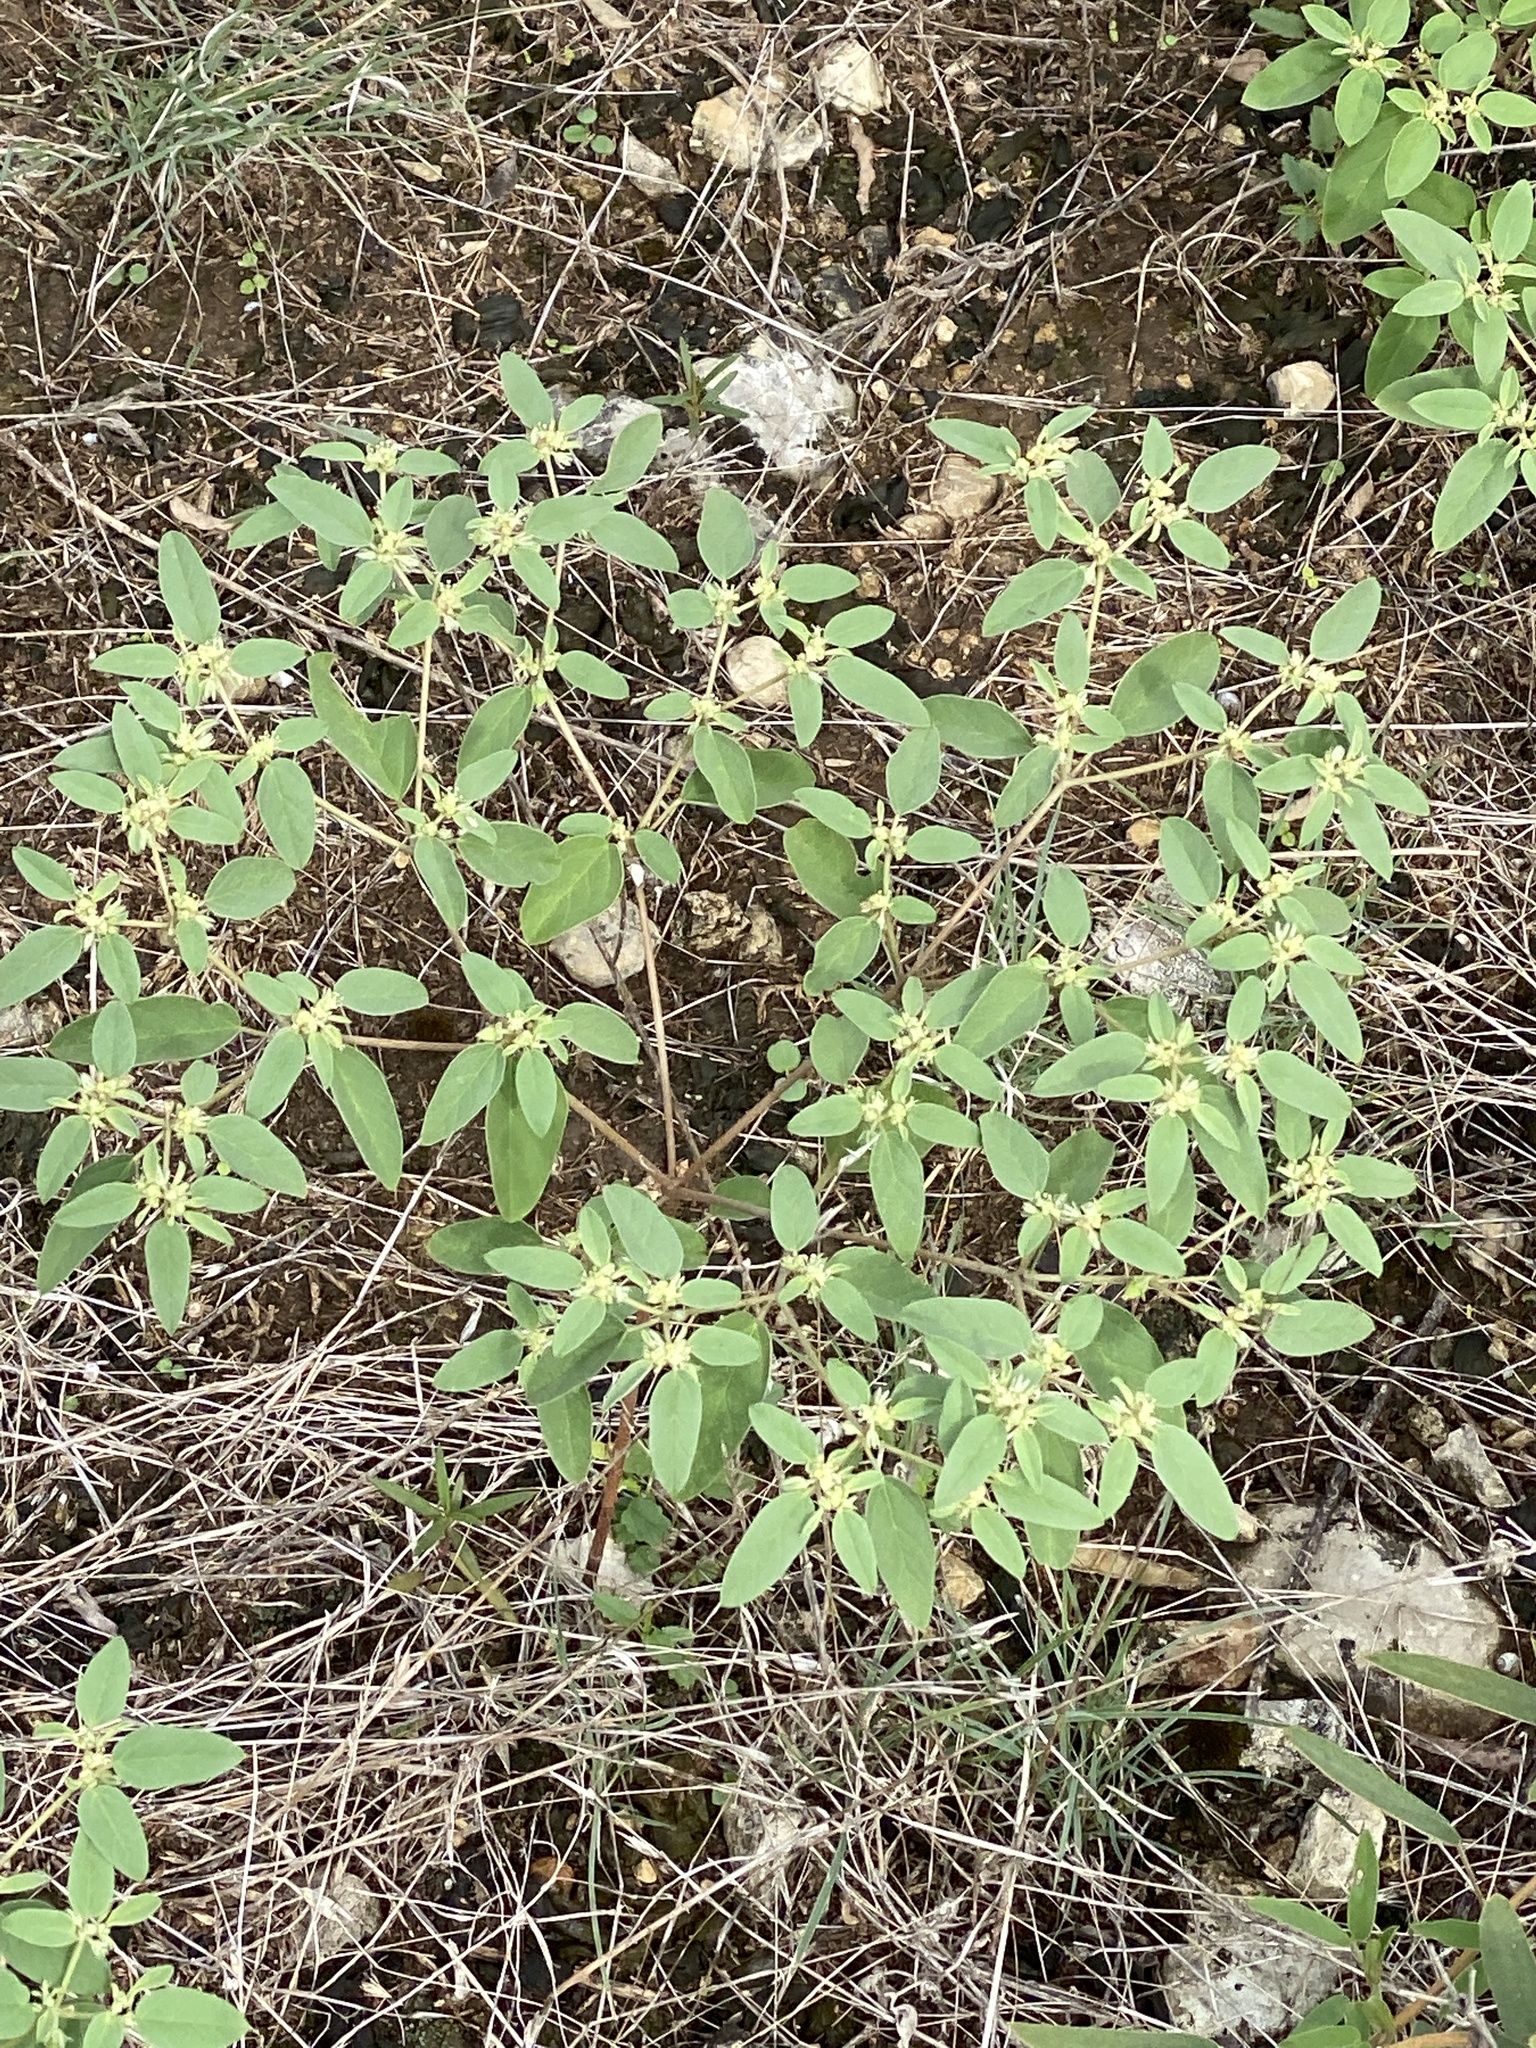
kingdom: Plantae
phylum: Tracheophyta
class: Magnoliopsida
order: Malpighiales
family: Euphorbiaceae
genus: Croton
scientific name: Croton monanthogynus
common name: One-seed croton
